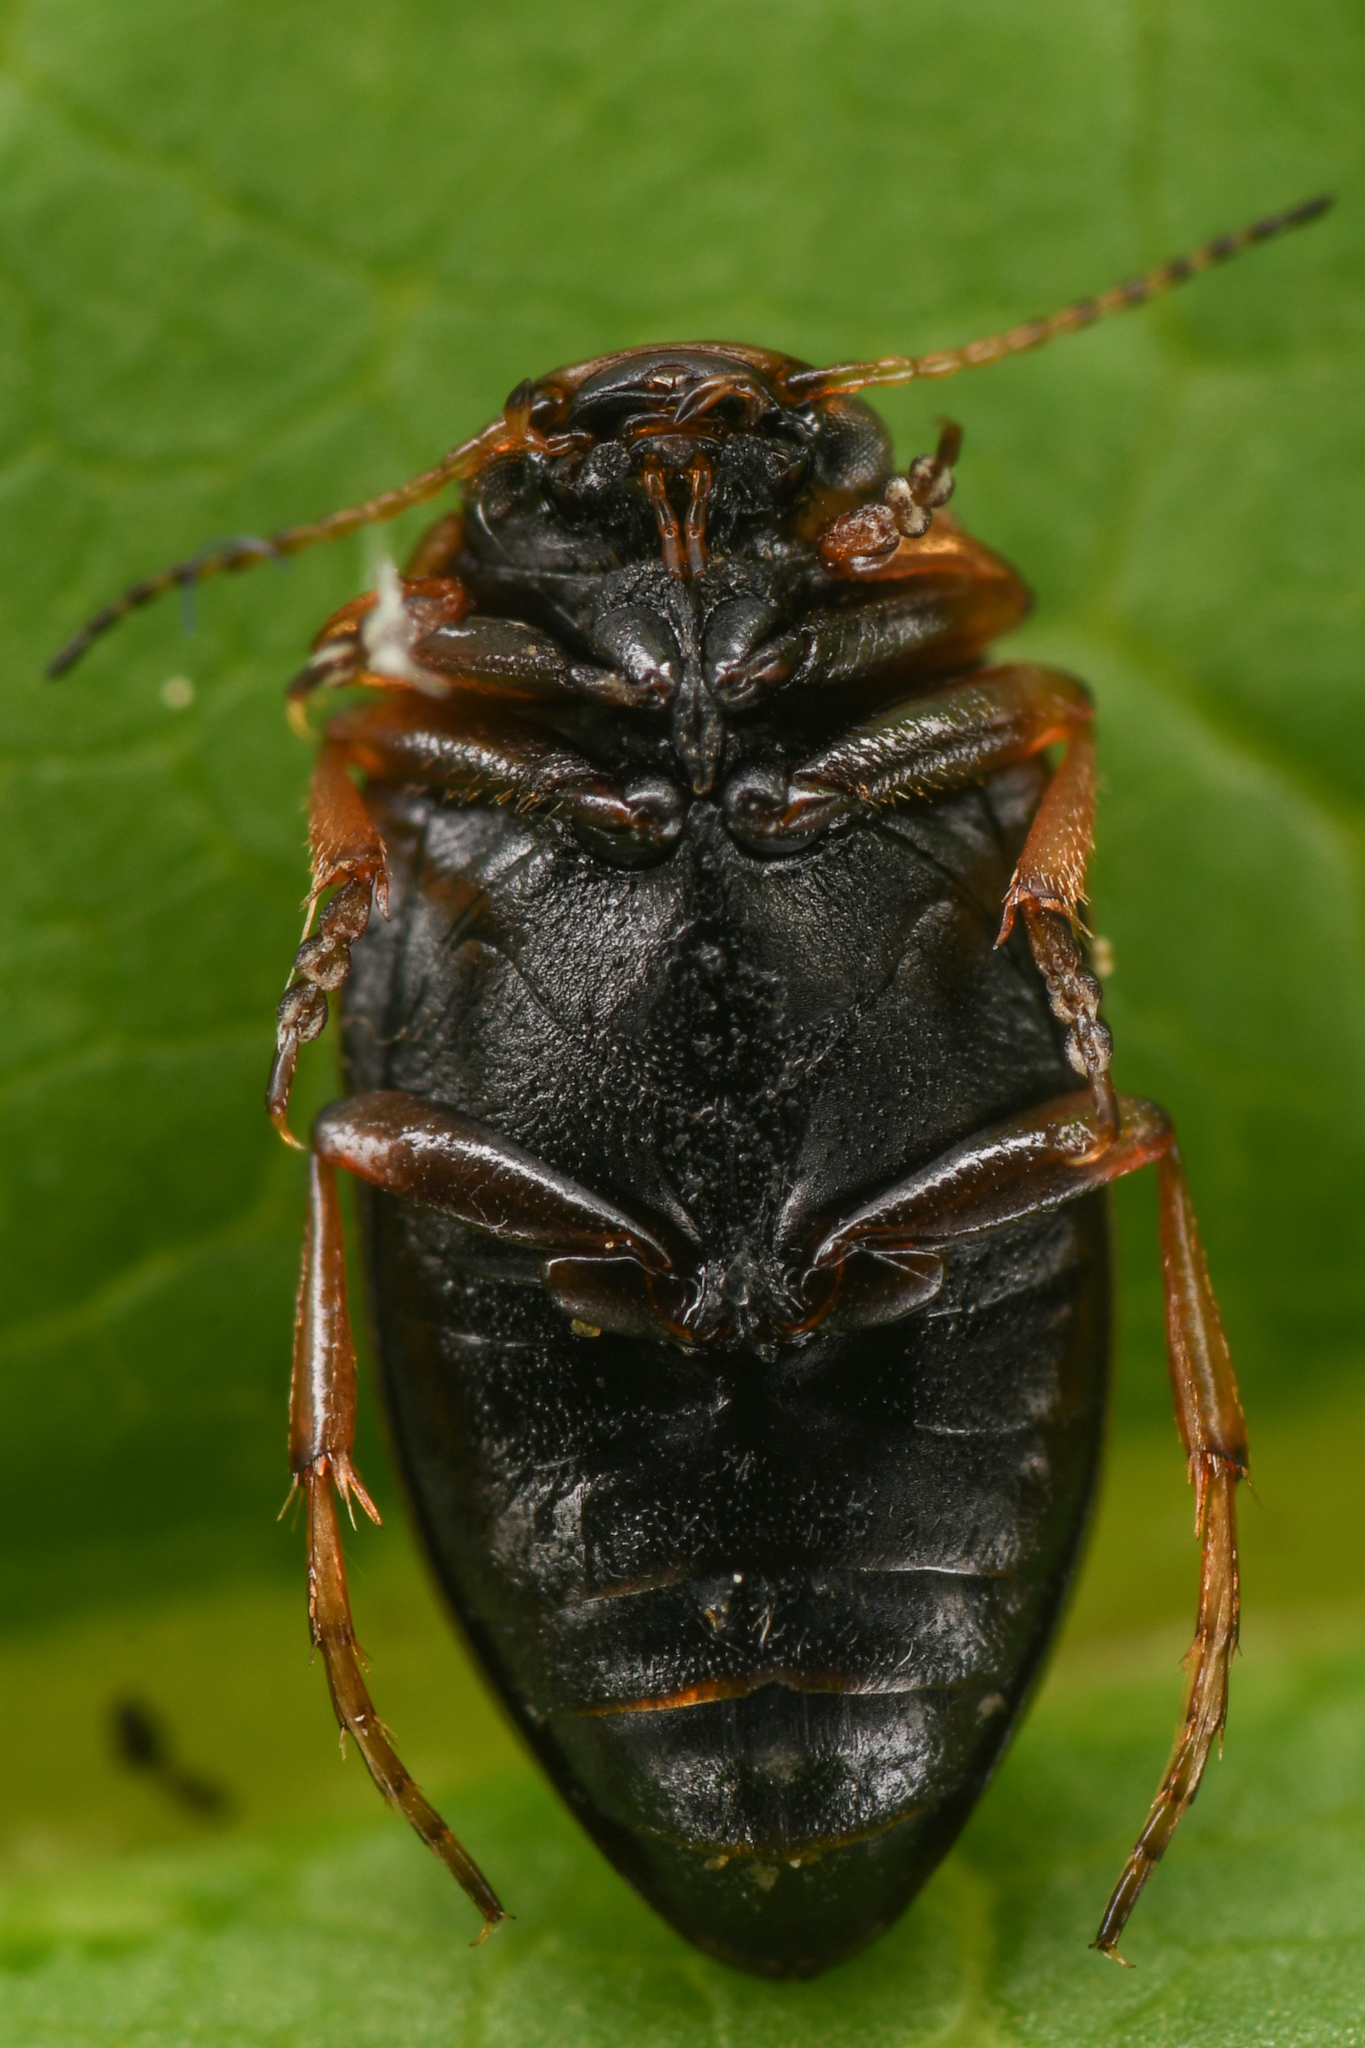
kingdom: Animalia
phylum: Arthropoda
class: Insecta
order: Coleoptera
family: Dytiscidae
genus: Oreodytes
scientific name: Oreodytes alaskanus
